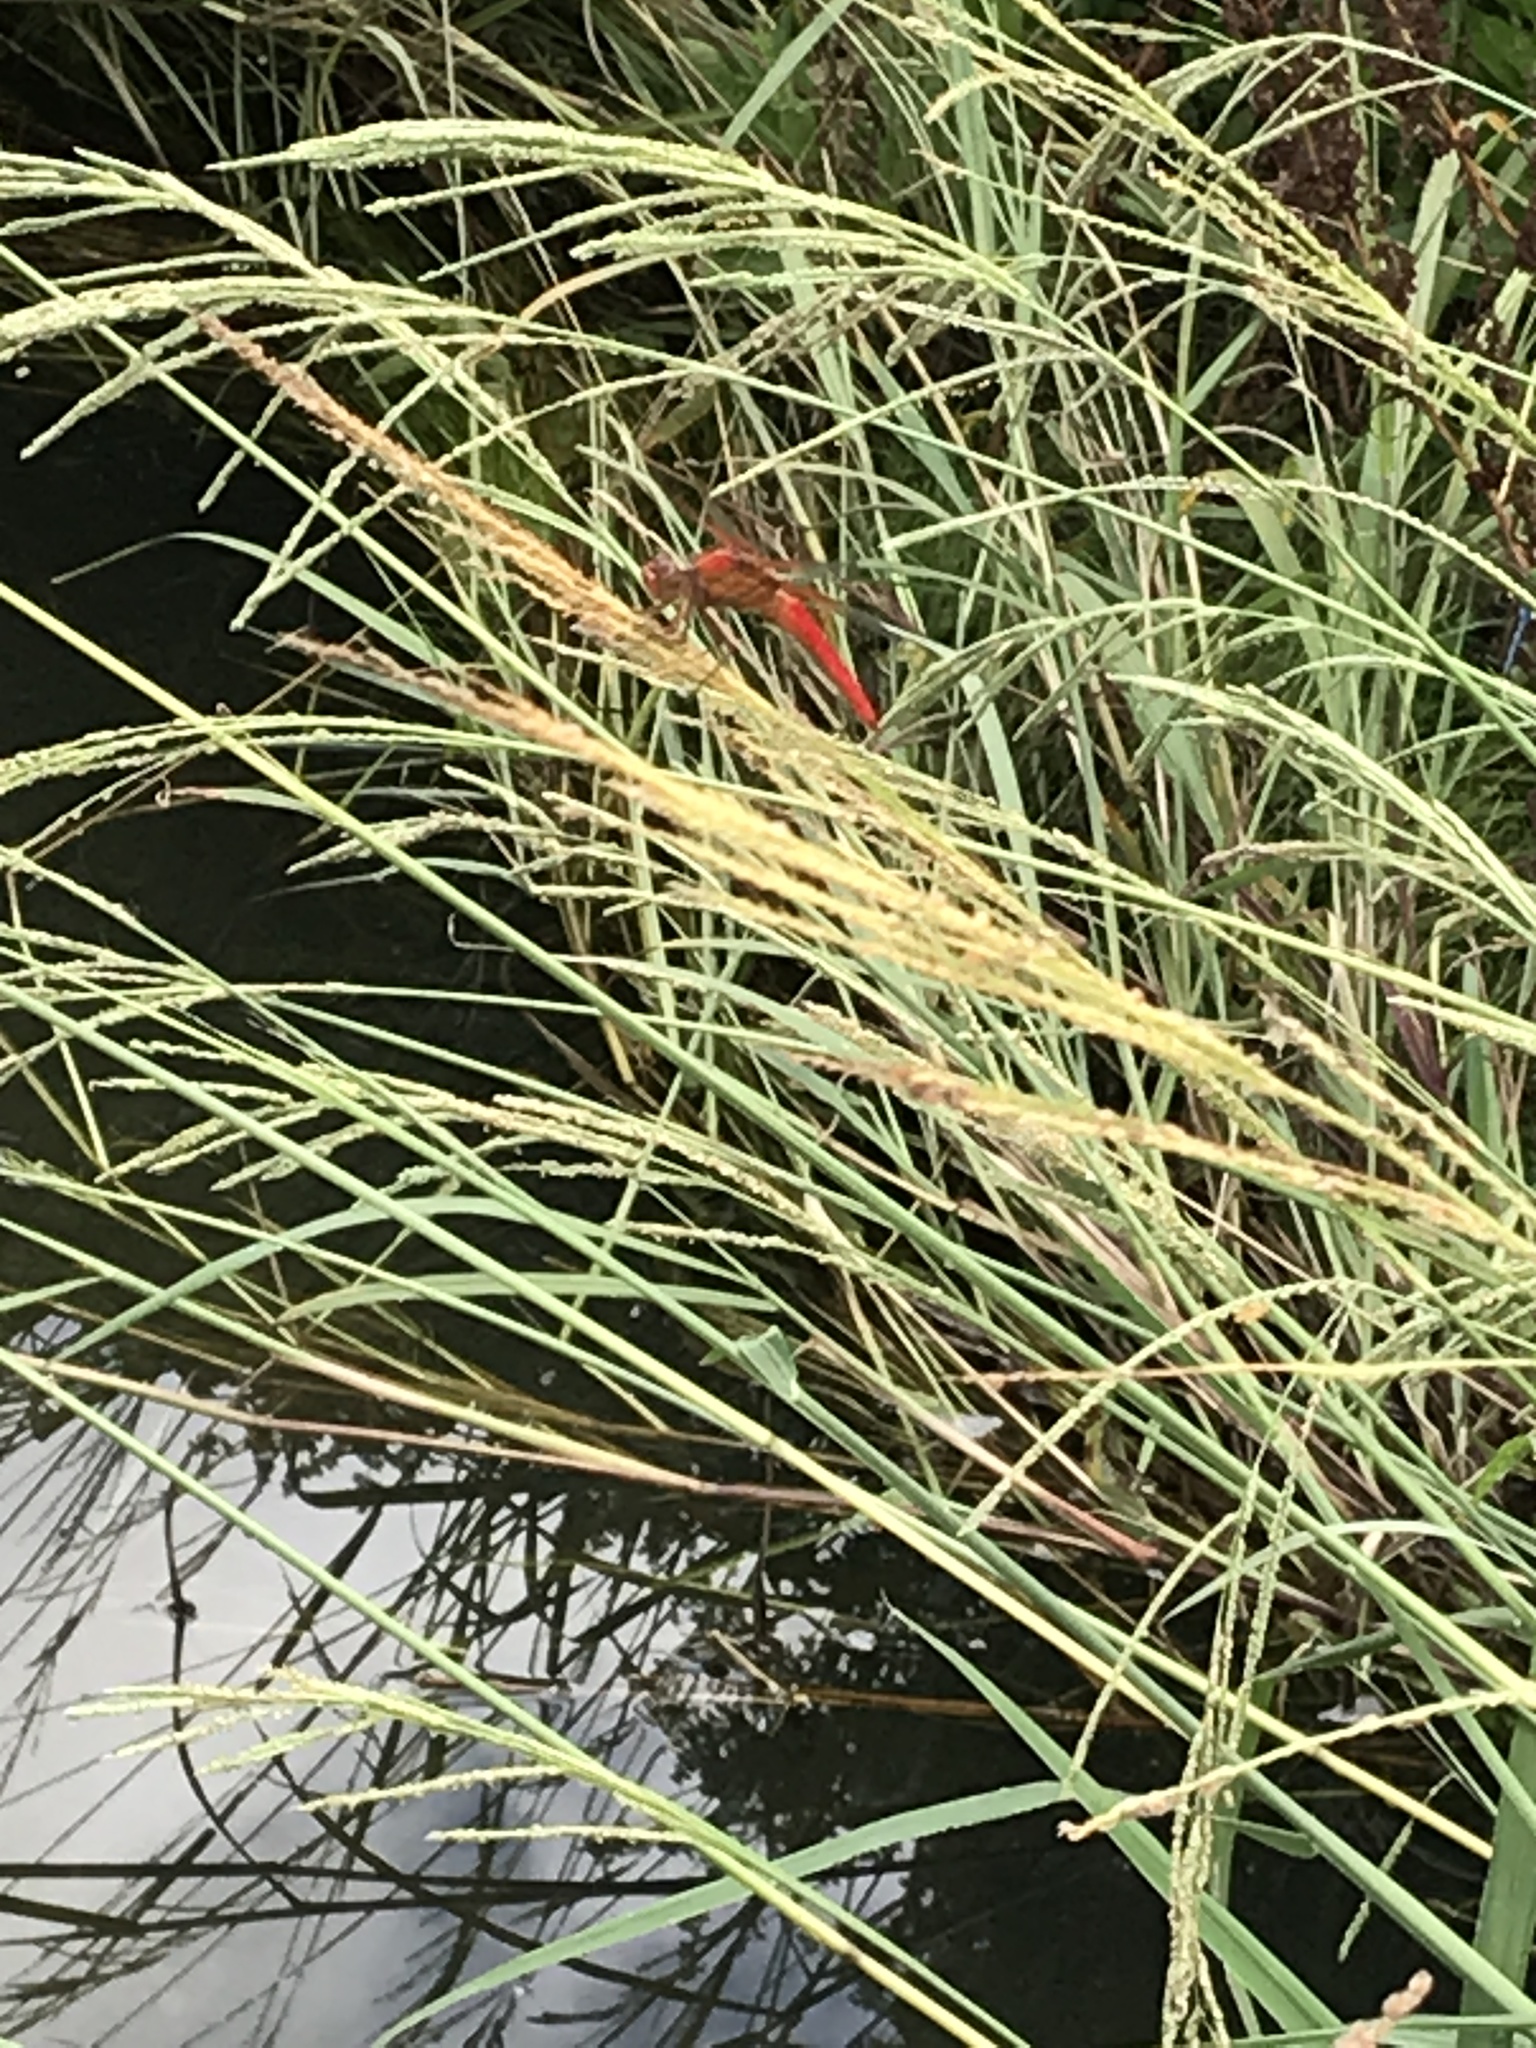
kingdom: Animalia
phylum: Arthropoda
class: Insecta
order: Odonata
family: Libellulidae
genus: Libellula
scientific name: Libellula croceipennis
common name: Neon skimmer
